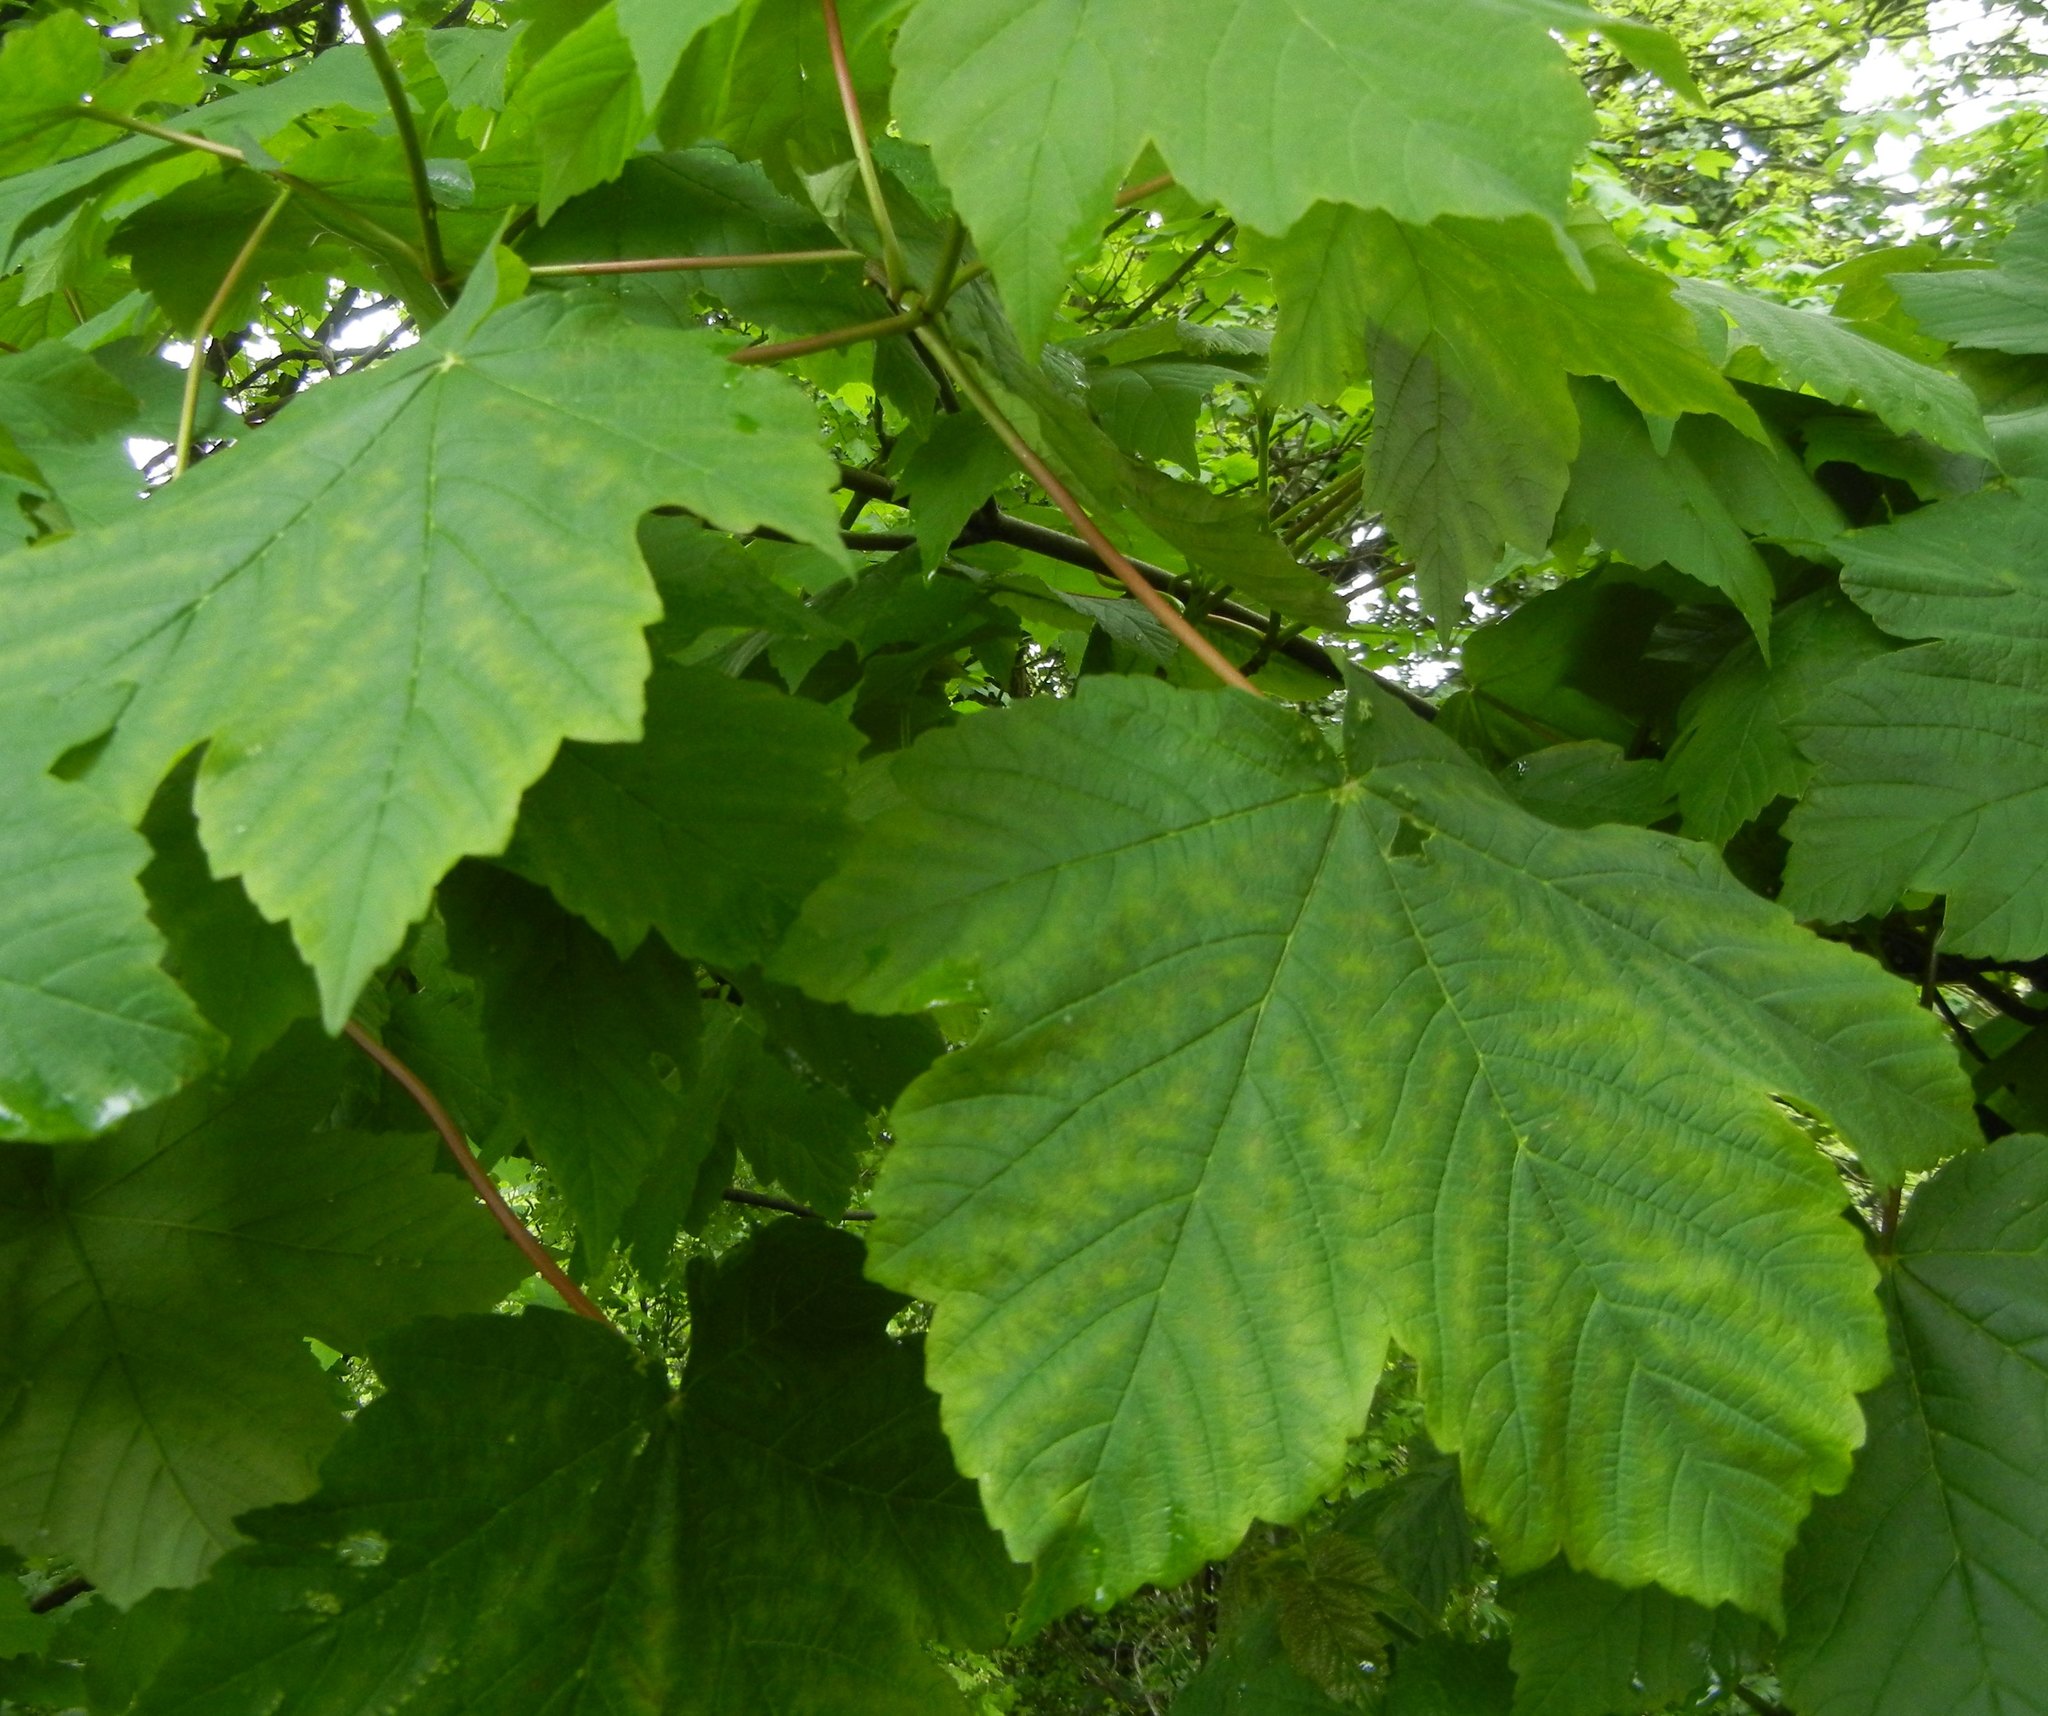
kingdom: Plantae
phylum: Tracheophyta
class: Magnoliopsida
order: Sapindales
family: Sapindaceae
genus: Acer
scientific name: Acer pseudoplatanus
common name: Sycamore
